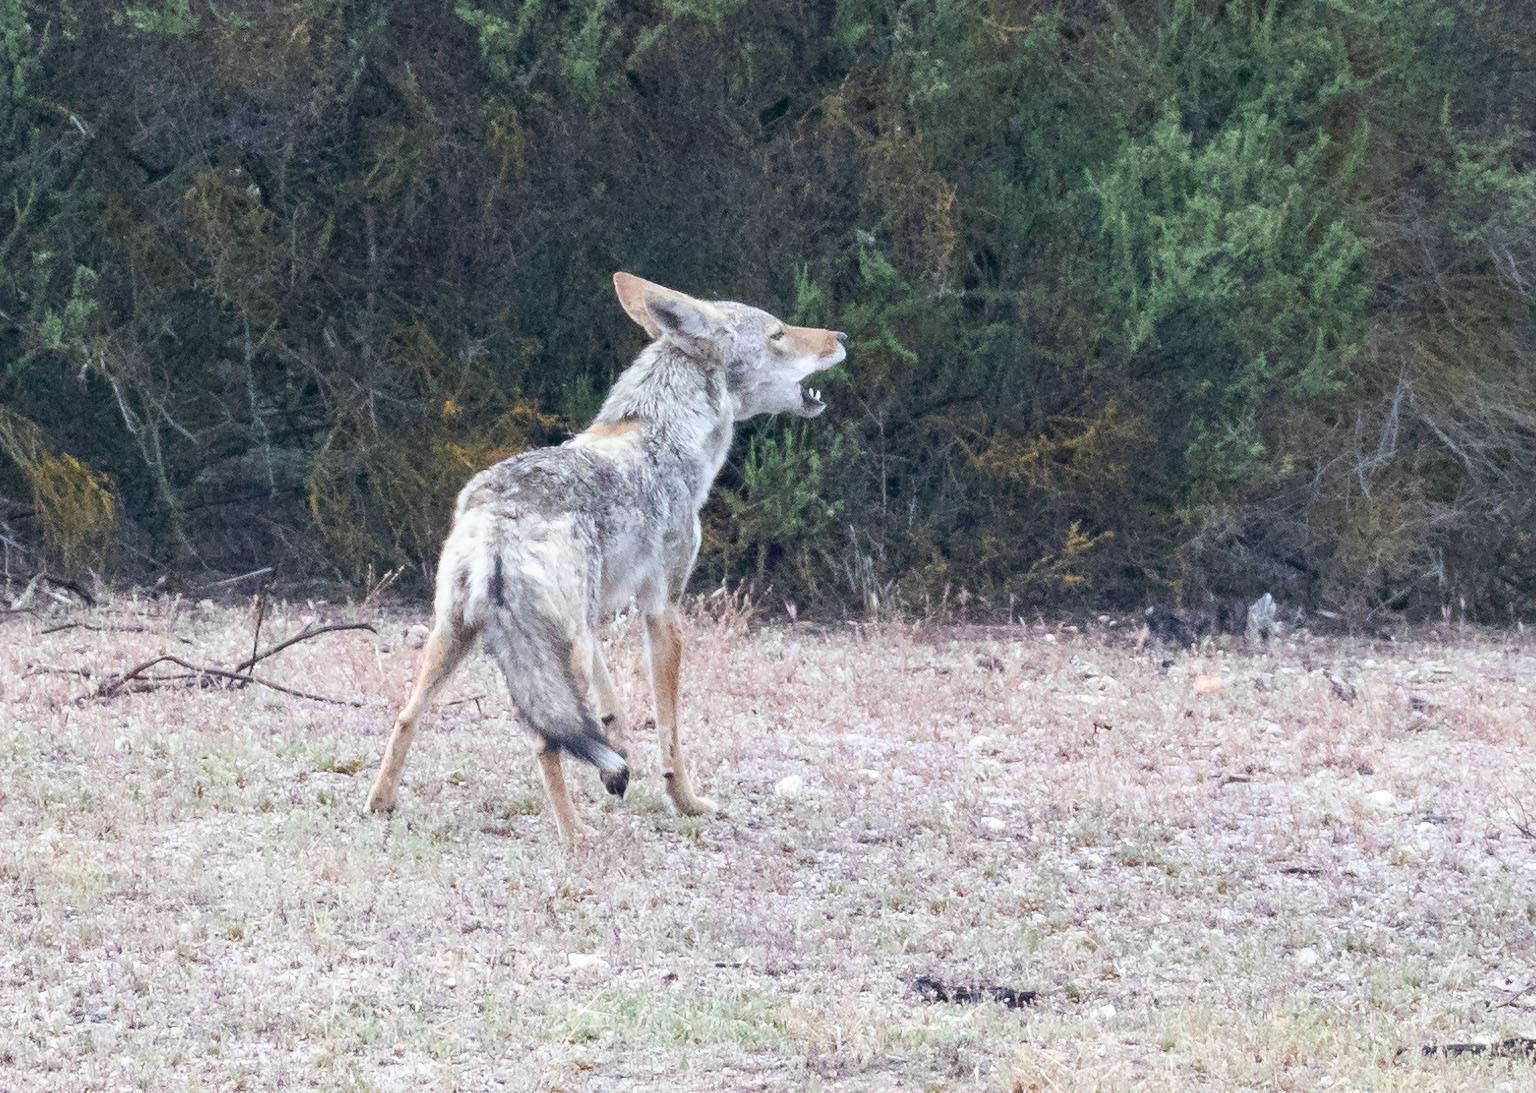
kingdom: Animalia
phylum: Chordata
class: Mammalia
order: Carnivora
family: Canidae
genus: Canis
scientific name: Canis latrans
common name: Coyote
